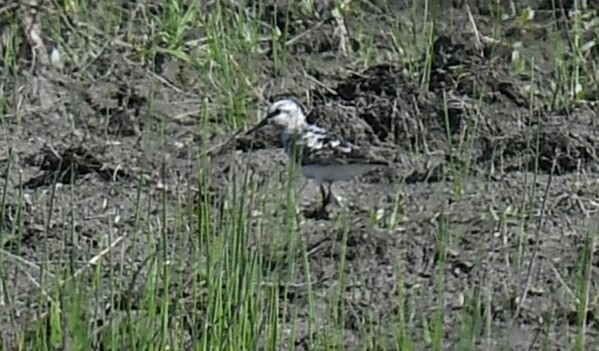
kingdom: Animalia
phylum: Chordata
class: Aves
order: Charadriiformes
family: Scolopacidae
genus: Calidris
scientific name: Calidris alba
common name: Sanderling
